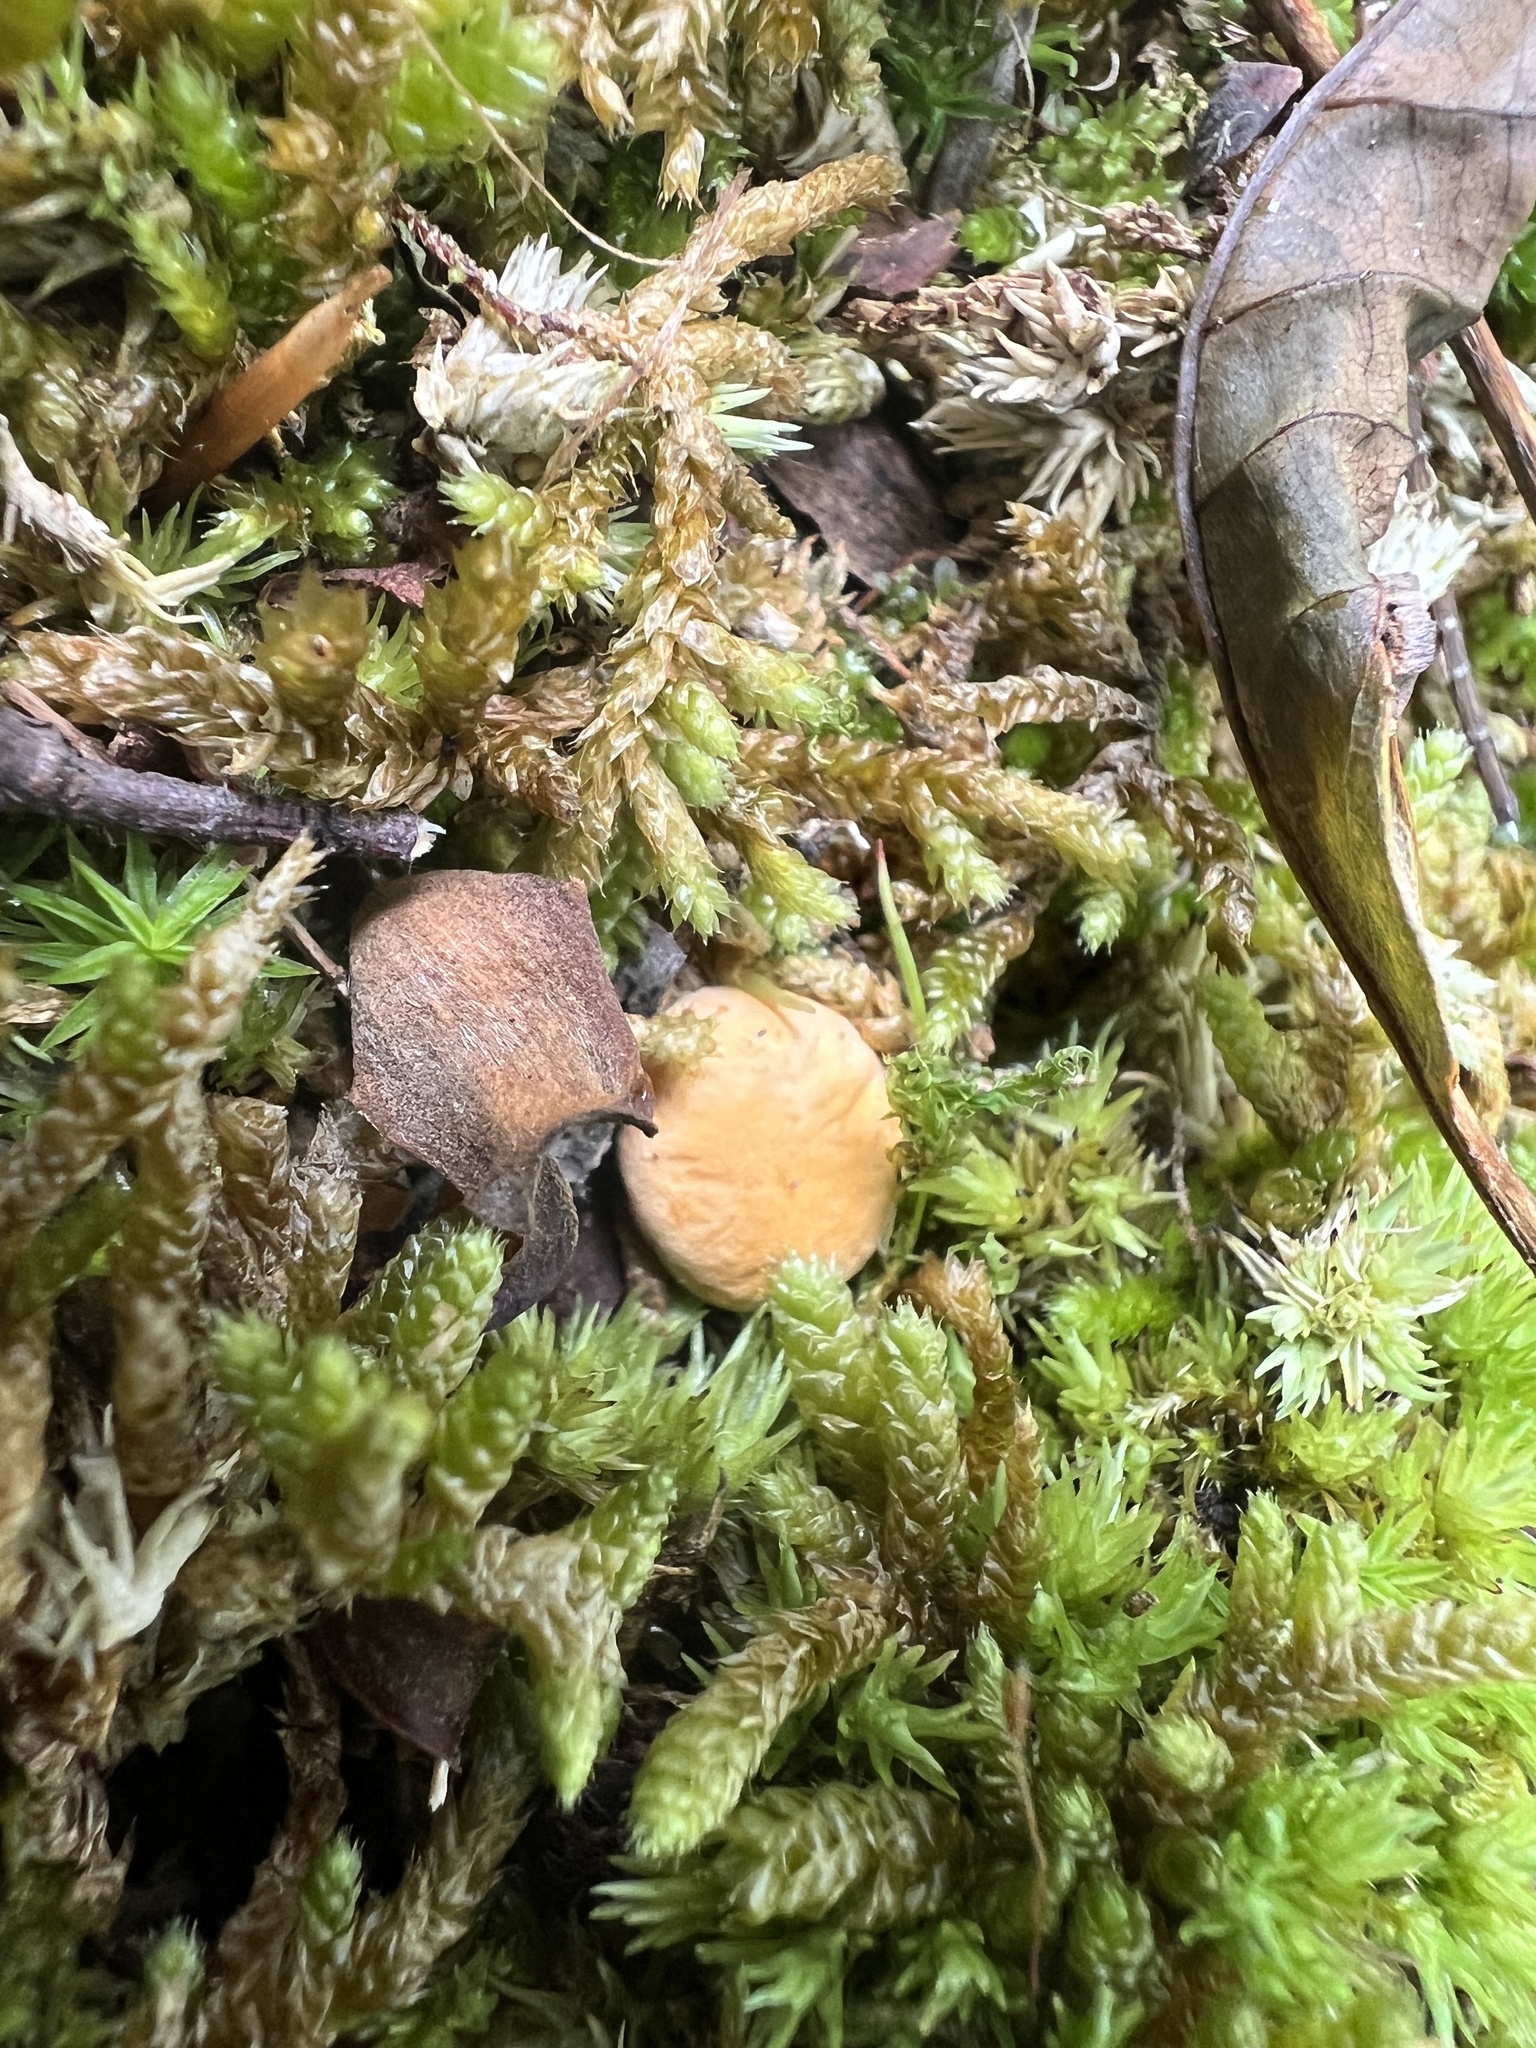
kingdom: Fungi
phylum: Basidiomycota
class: Agaricomycetes
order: Cantharellales
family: Hydnaceae
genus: Cantharellus
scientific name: Cantharellus flavolateritius
